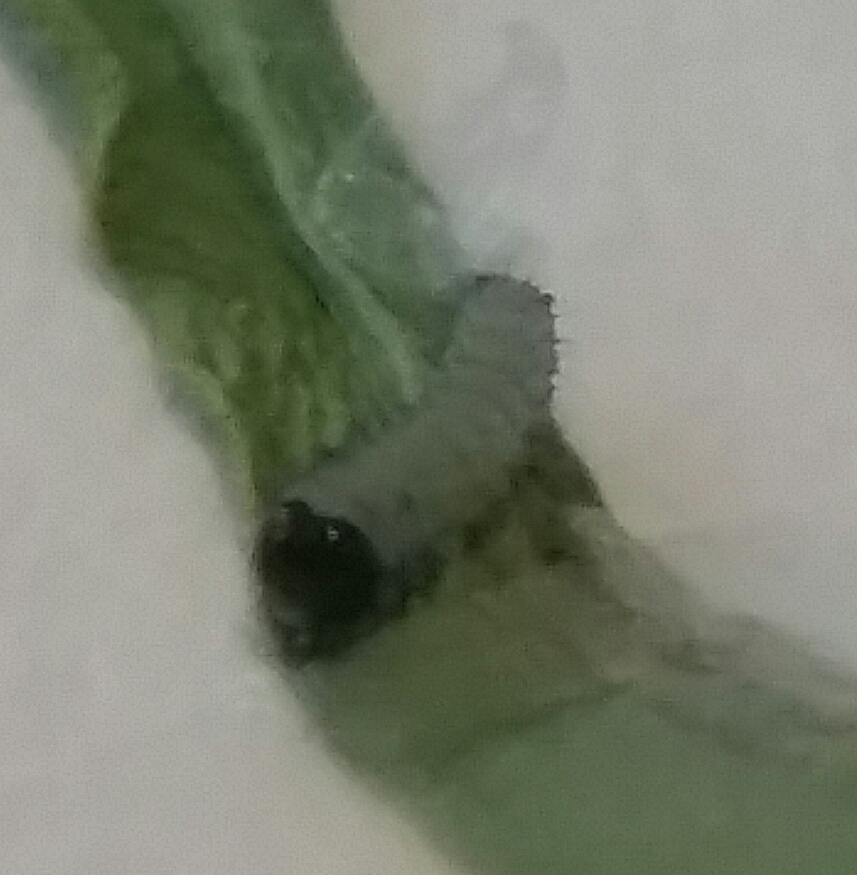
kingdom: Animalia
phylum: Arthropoda
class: Insecta
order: Lepidoptera
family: Nymphalidae
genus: Danaus
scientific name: Danaus plexippus
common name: Monarch
